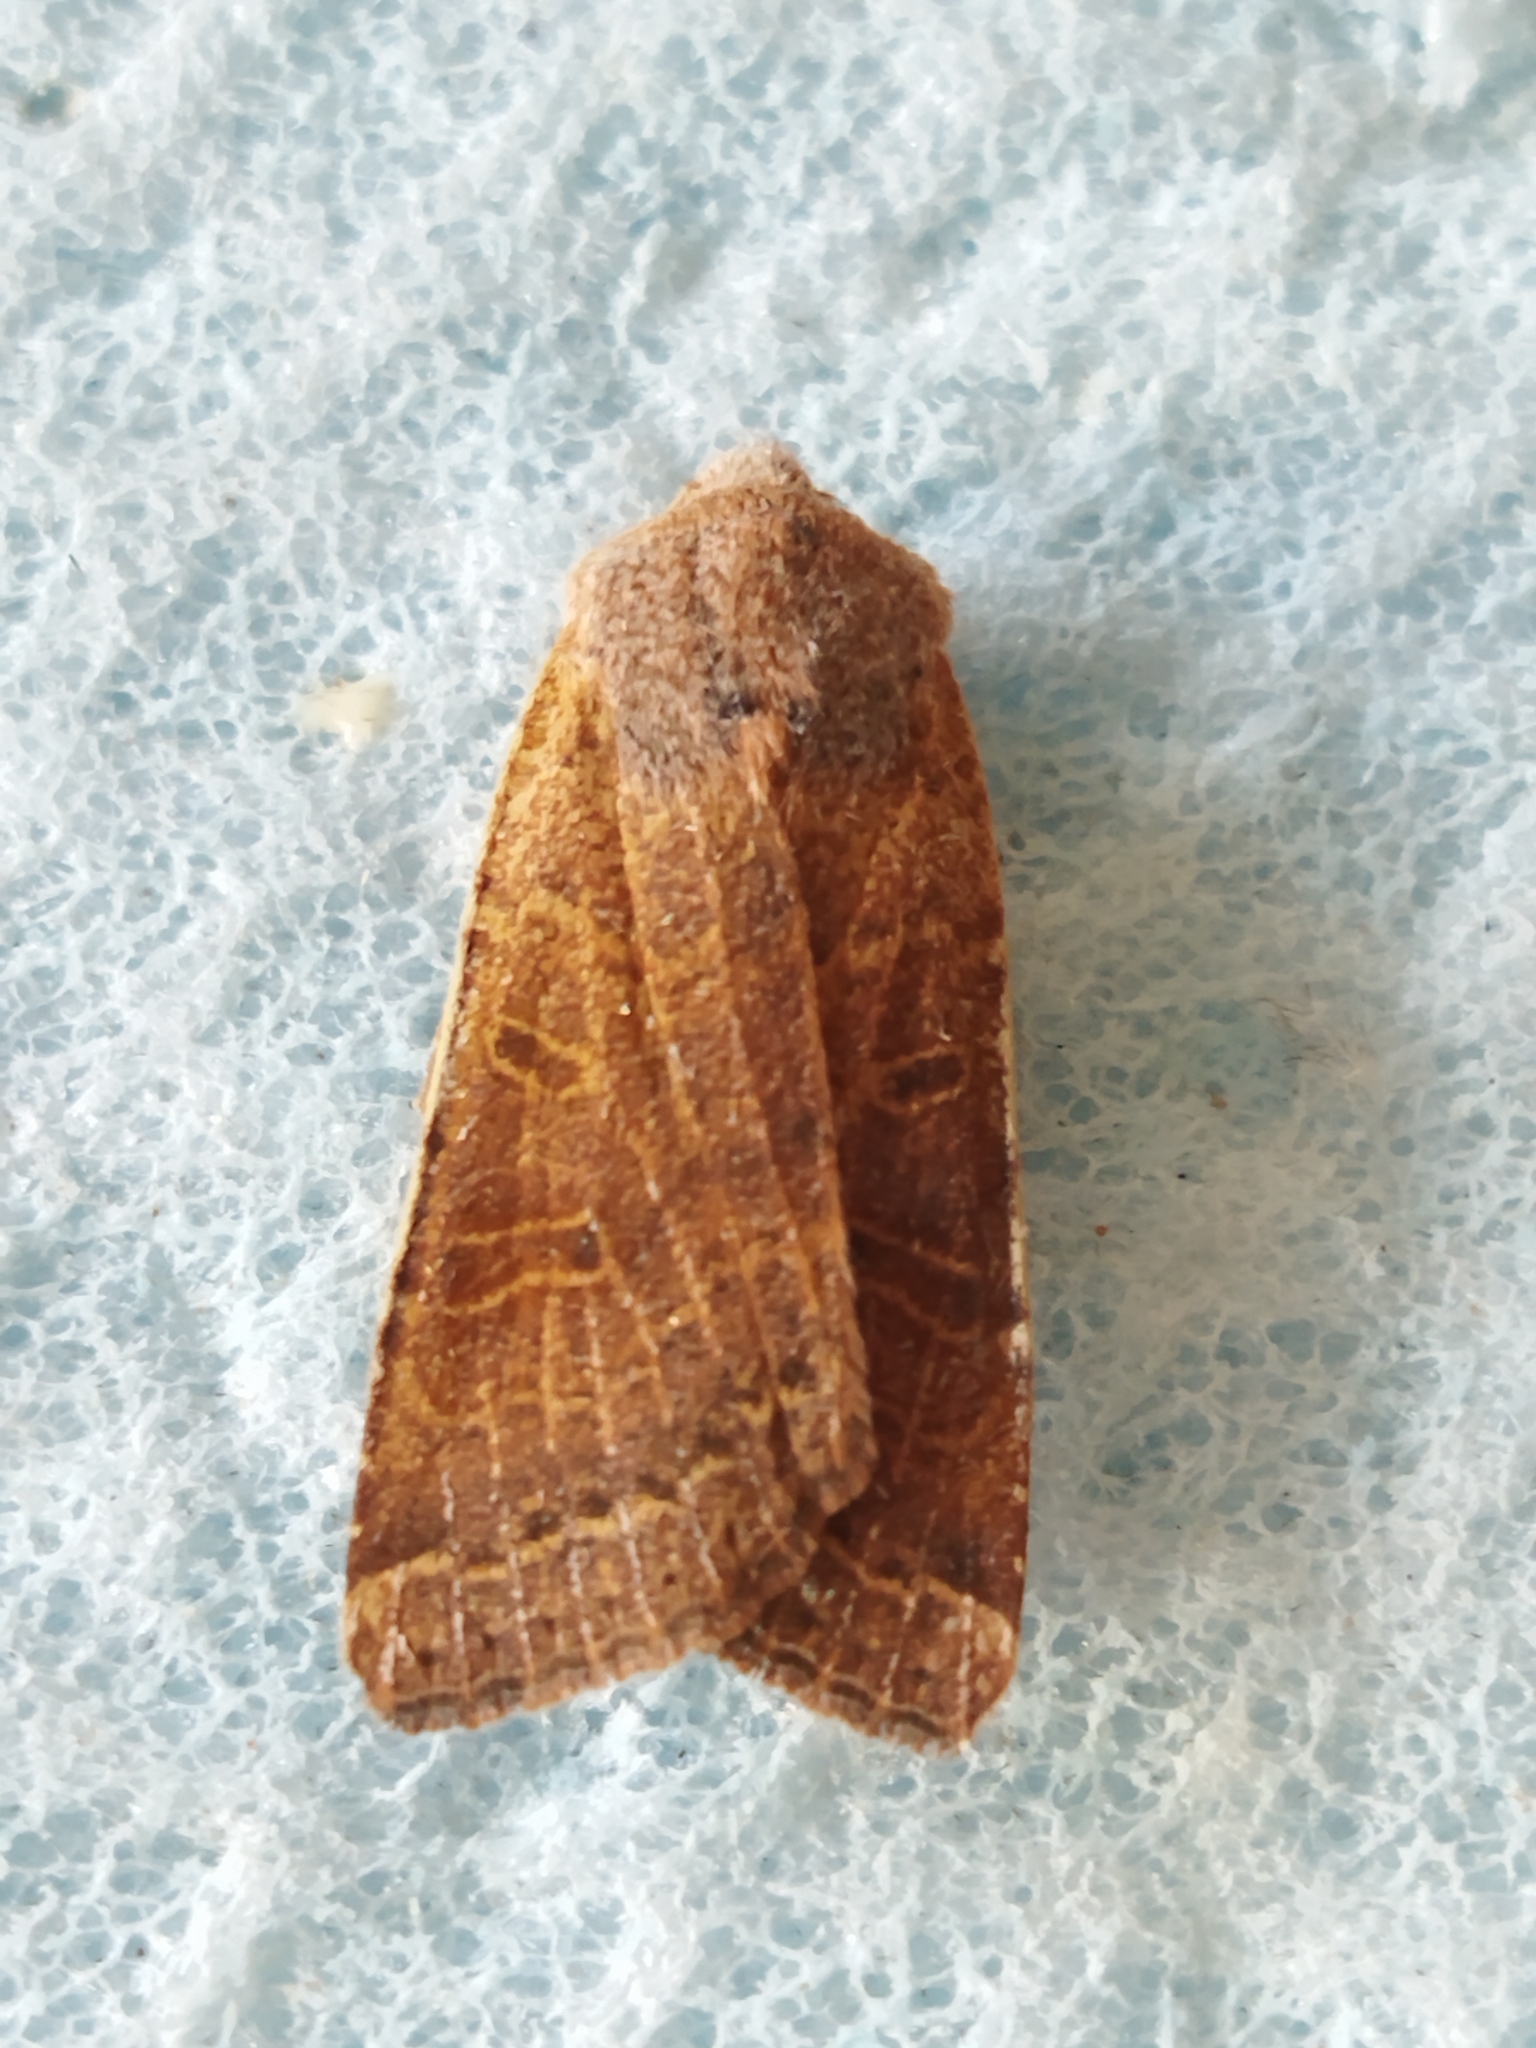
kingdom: Animalia
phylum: Arthropoda
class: Insecta
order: Lepidoptera
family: Noctuidae
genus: Agrochola
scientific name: Agrochola lychnidis
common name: Beaded chestnut
